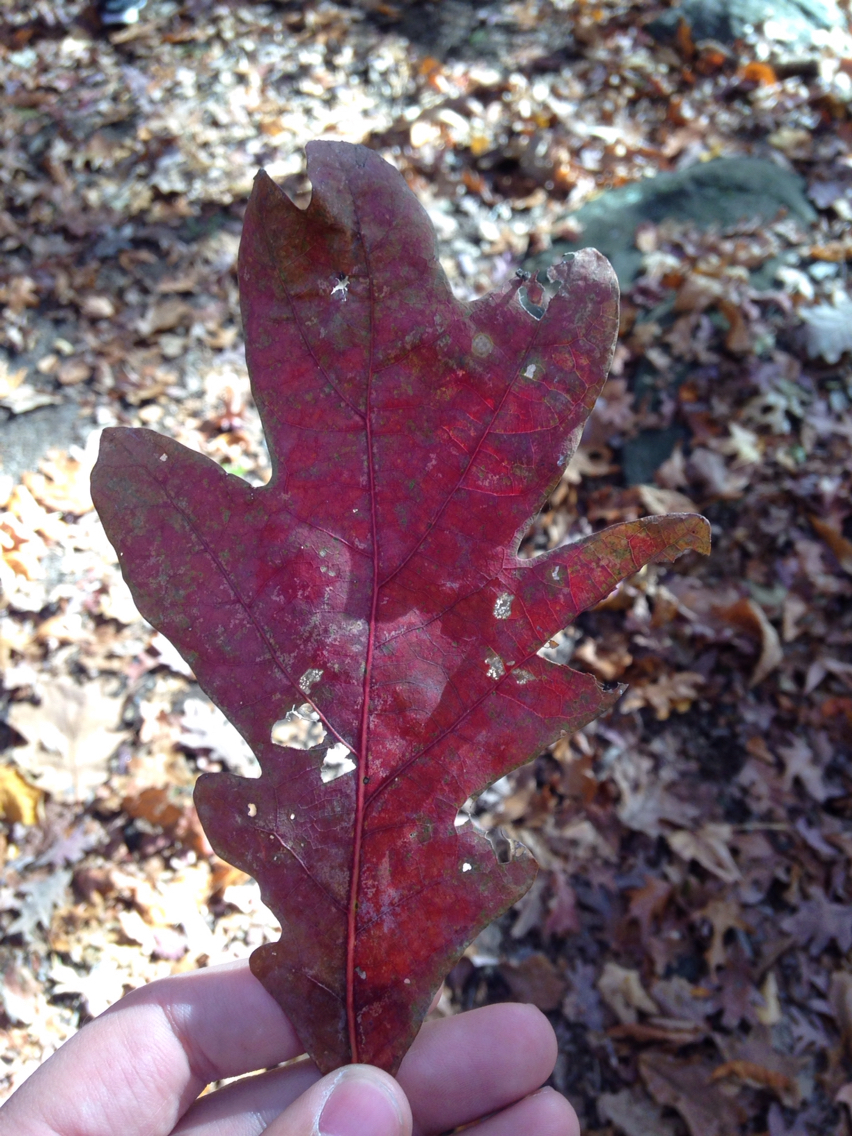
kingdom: Plantae
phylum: Tracheophyta
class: Magnoliopsida
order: Fagales
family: Fagaceae
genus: Quercus
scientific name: Quercus alba
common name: White oak
